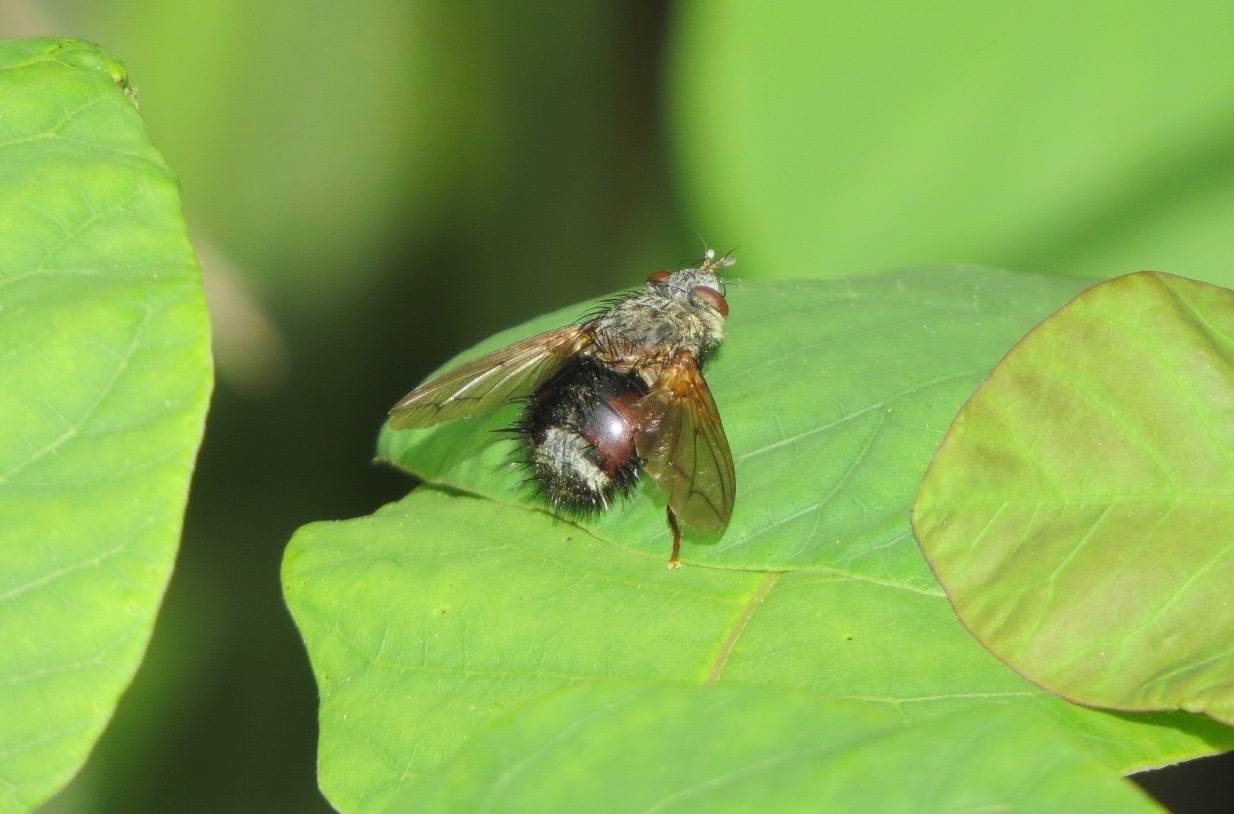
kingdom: Animalia
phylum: Arthropoda
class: Insecta
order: Diptera
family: Tachinidae
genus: Epalpus
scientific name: Epalpus signifer
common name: Early tachinid fly
